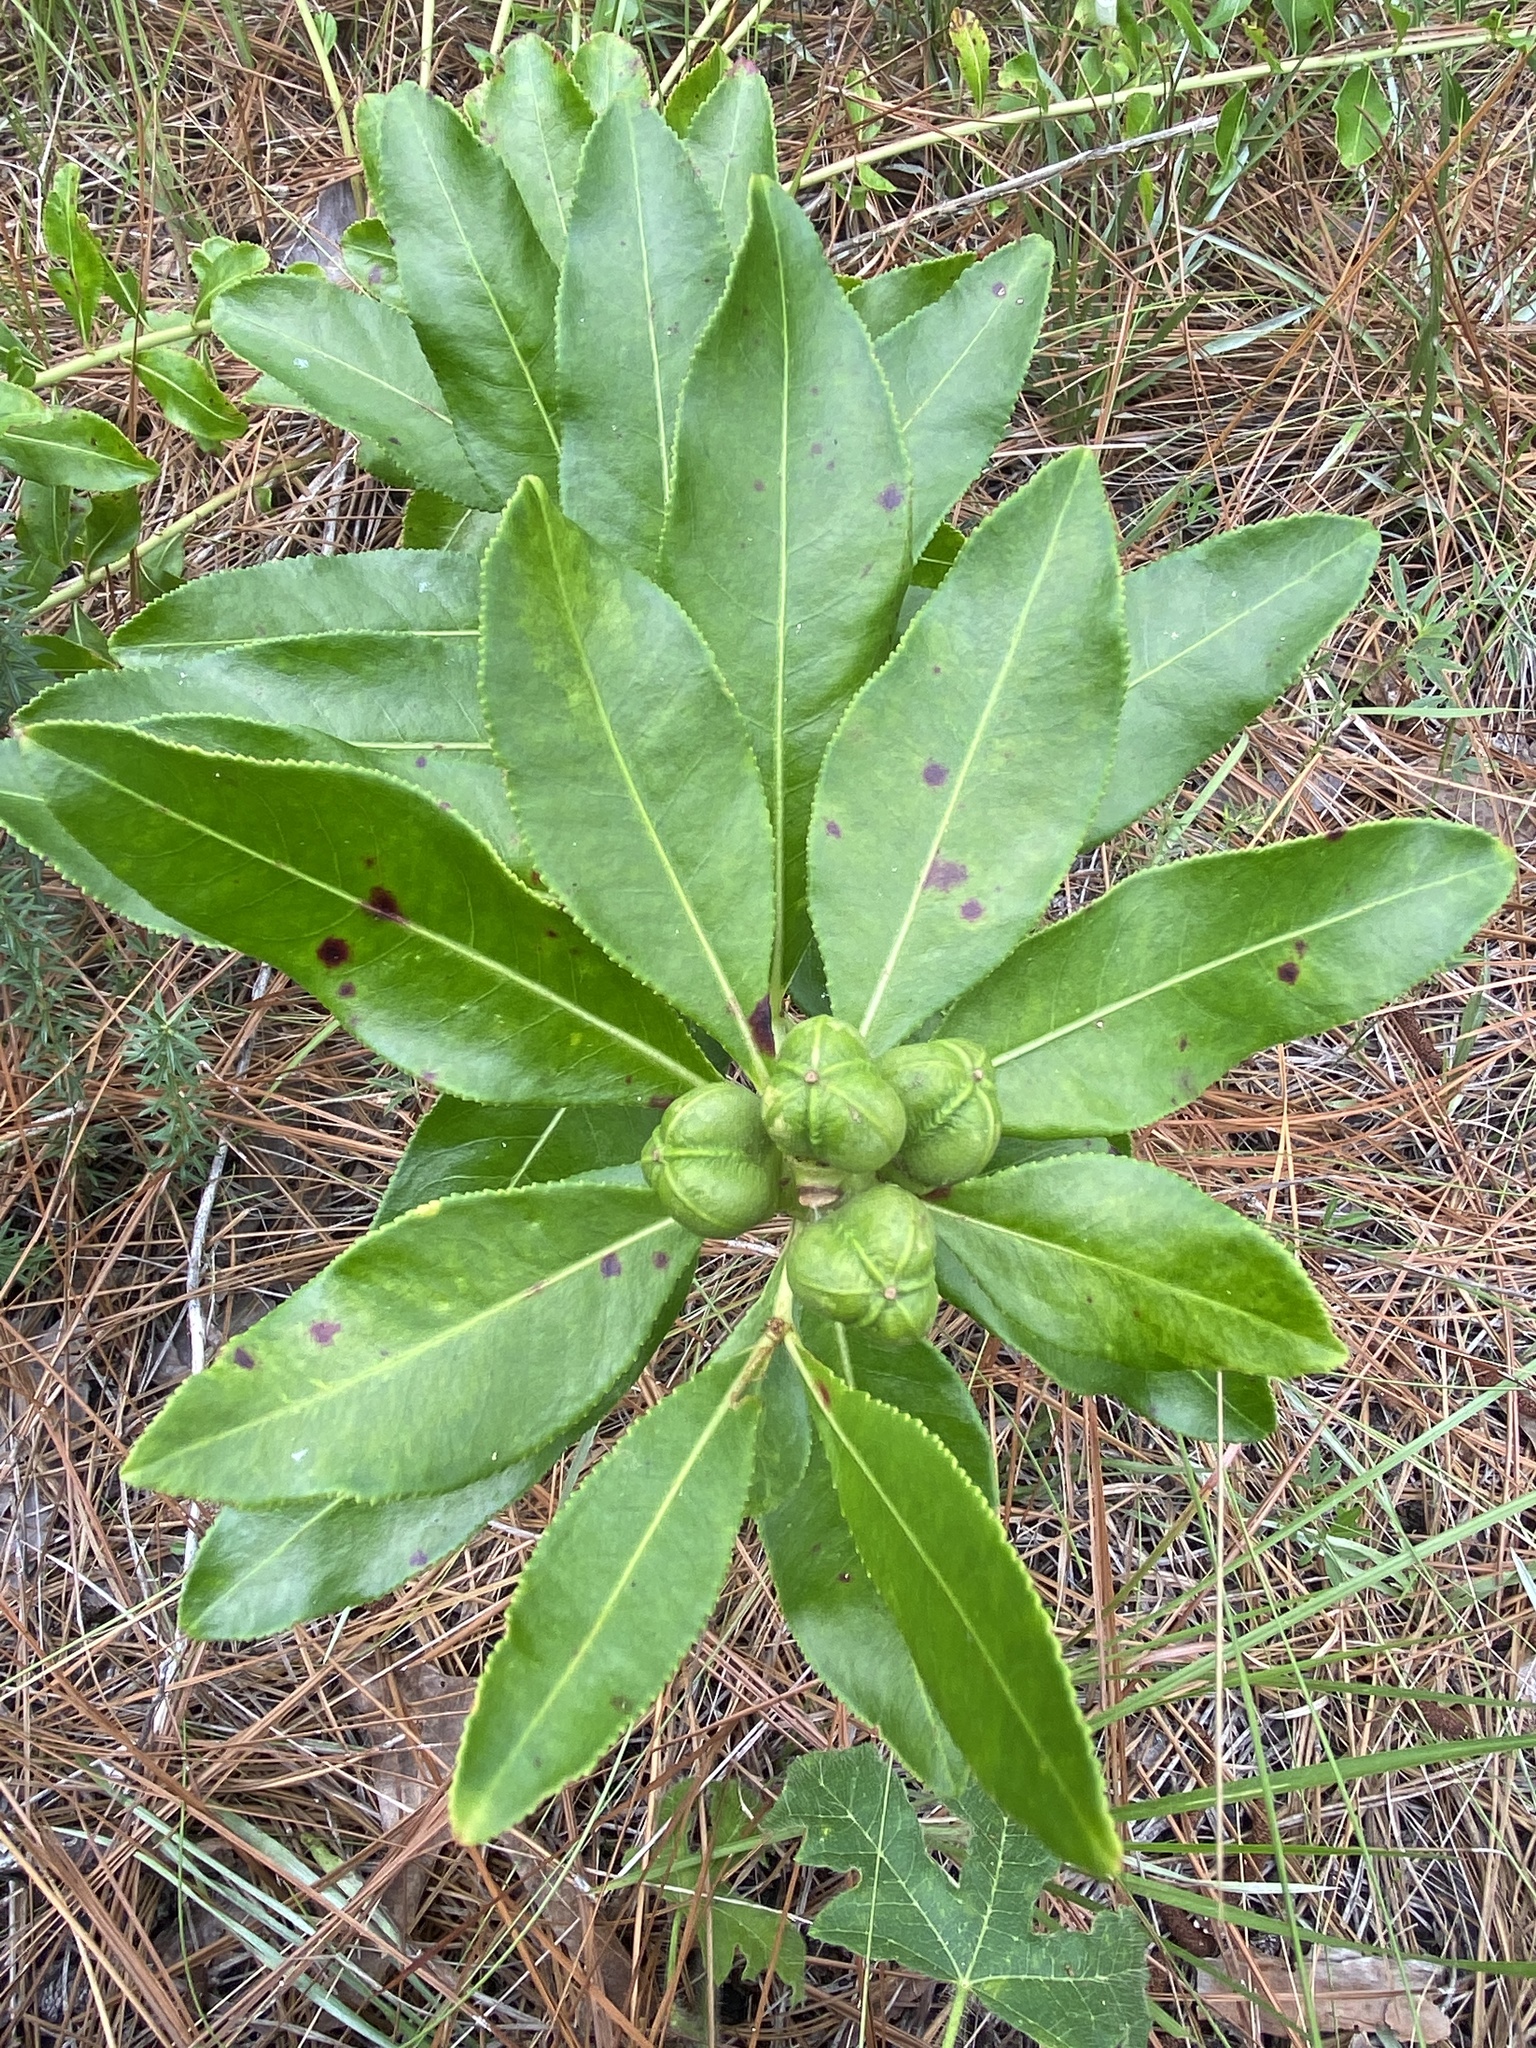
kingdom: Plantae
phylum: Tracheophyta
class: Magnoliopsida
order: Malpighiales
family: Euphorbiaceae
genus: Stillingia
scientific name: Stillingia sylvatica
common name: Queen's-delight
